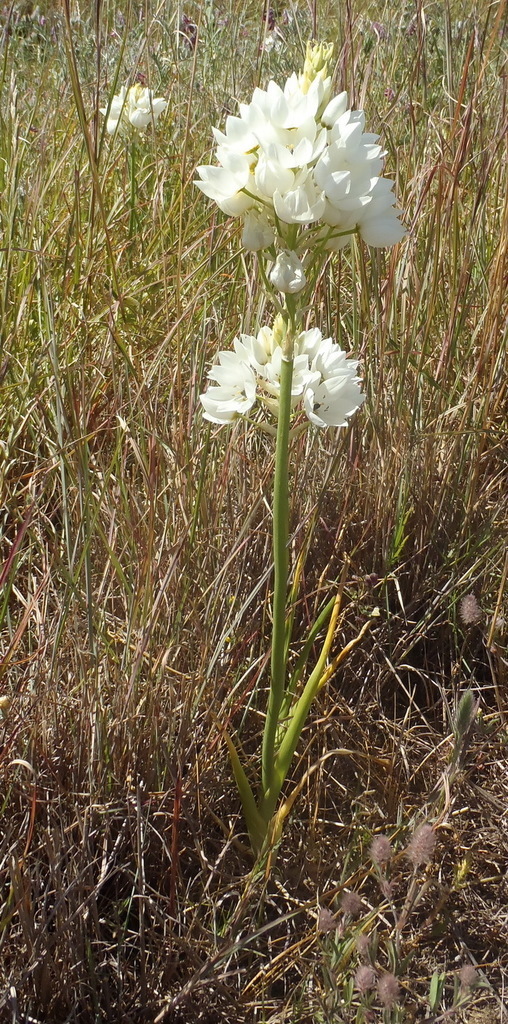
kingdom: Plantae
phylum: Tracheophyta
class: Liliopsida
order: Asparagales
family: Asparagaceae
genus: Ornithogalum
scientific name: Ornithogalum thyrsoides
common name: Chincherinchee
